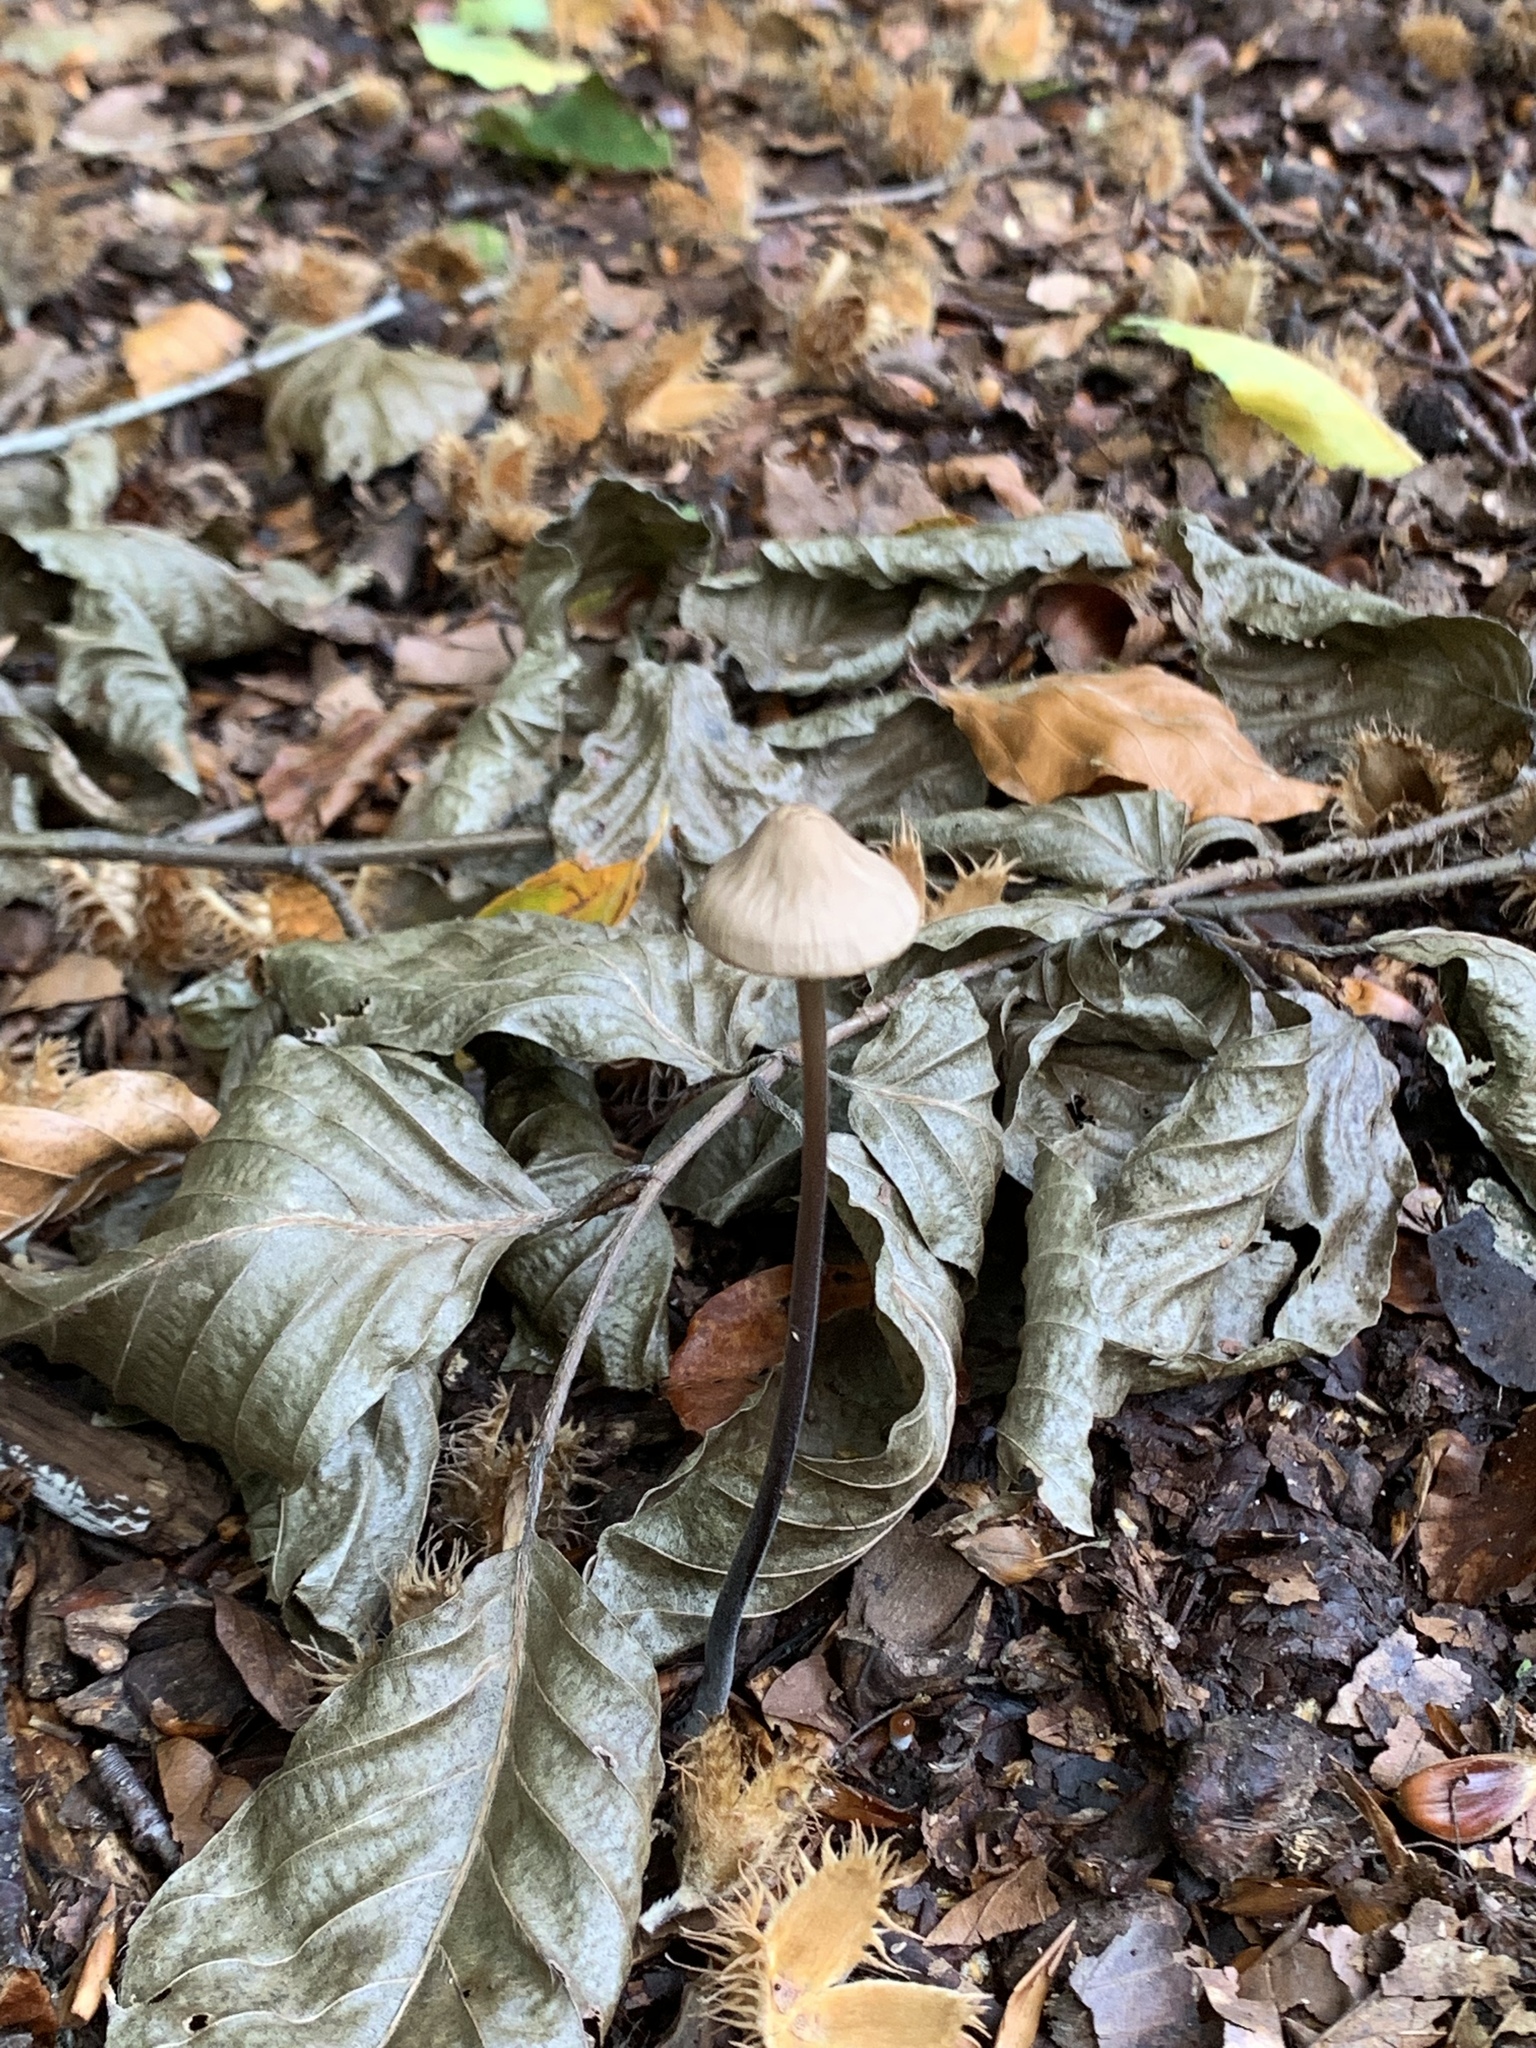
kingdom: Fungi
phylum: Basidiomycota
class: Agaricomycetes
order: Agaricales
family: Omphalotaceae
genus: Mycetinis
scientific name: Mycetinis alliaceus
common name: Garlic parachute
